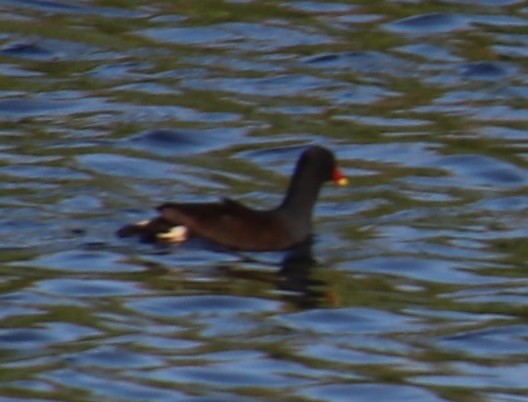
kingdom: Animalia
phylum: Chordata
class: Aves
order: Gruiformes
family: Rallidae
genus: Gallinula
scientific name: Gallinula chloropus
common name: Common moorhen
